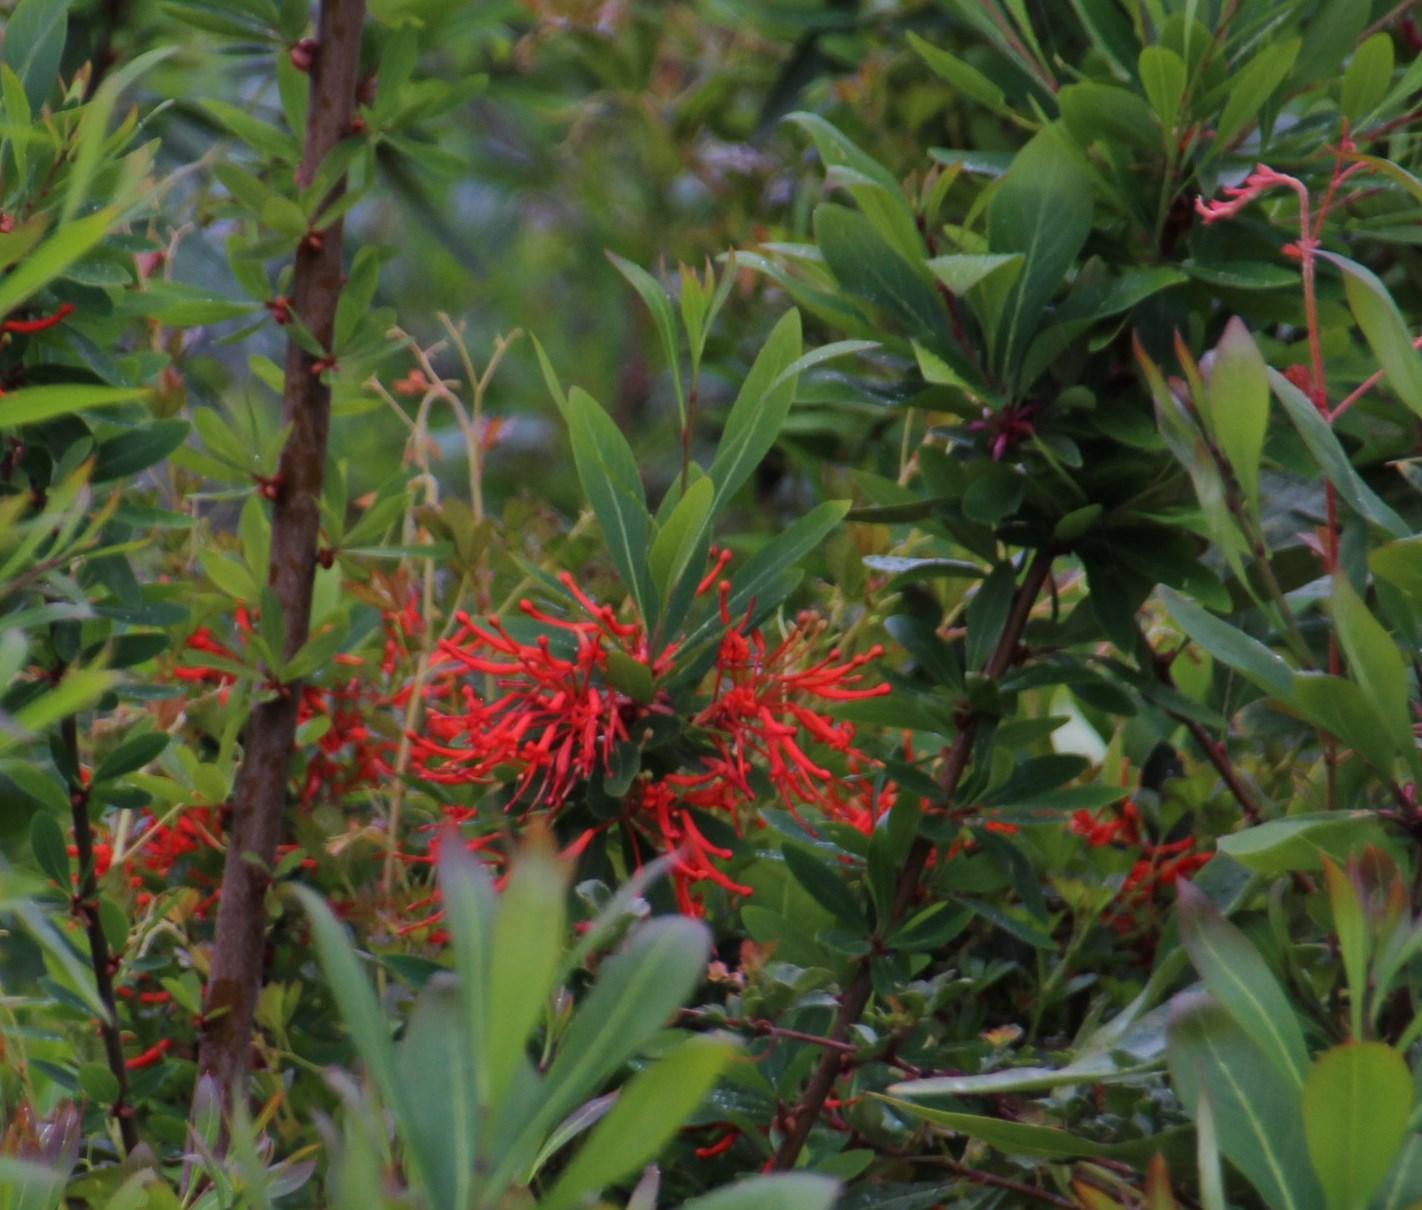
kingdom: Plantae
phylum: Tracheophyta
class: Magnoliopsida
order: Proteales
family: Proteaceae
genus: Embothrium
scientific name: Embothrium coccineum
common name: Chilean firebush
